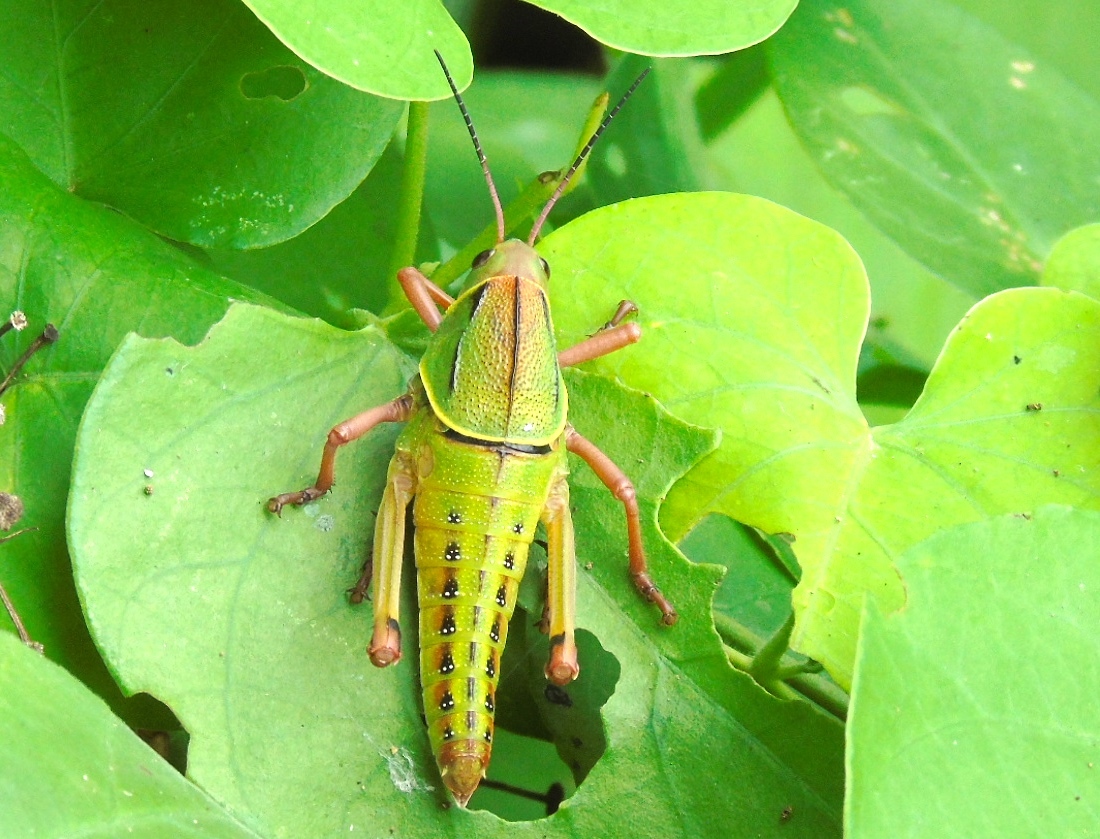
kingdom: Animalia
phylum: Arthropoda
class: Insecta
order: Orthoptera
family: Romaleidae
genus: Brachystola
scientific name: Brachystola
